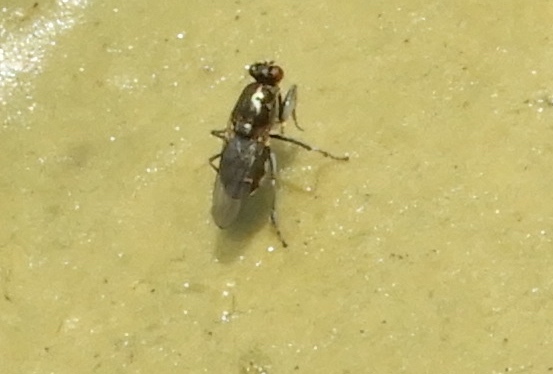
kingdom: Animalia
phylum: Arthropoda
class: Insecta
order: Diptera
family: Ephydridae
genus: Ochthera
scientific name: Ochthera
